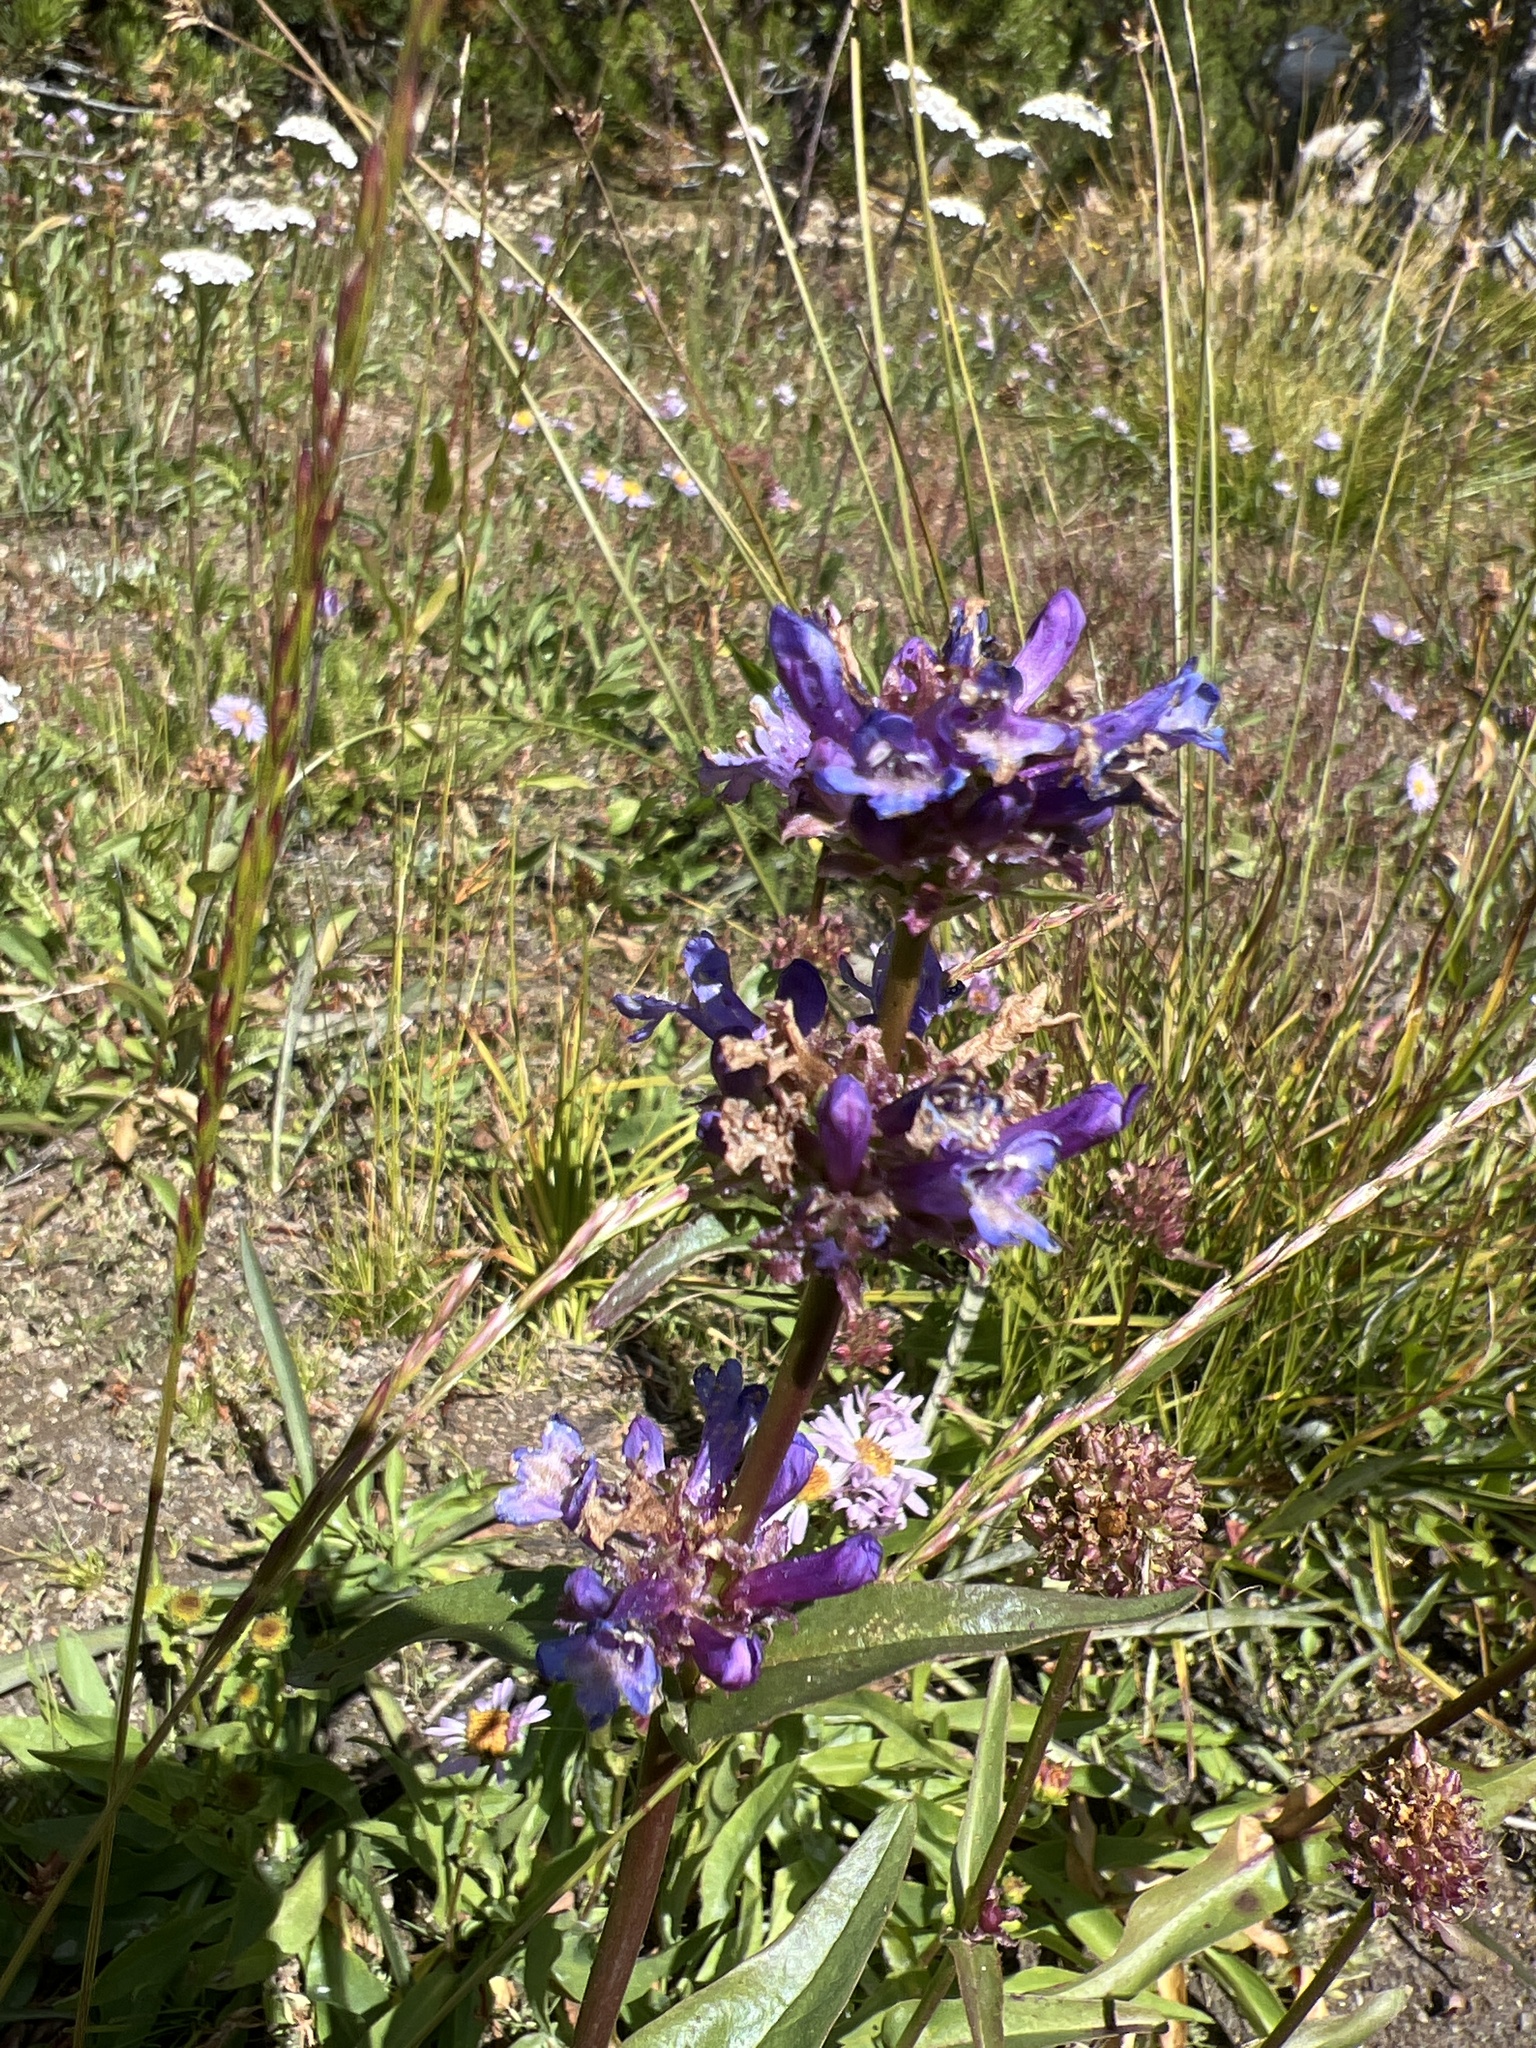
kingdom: Plantae
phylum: Tracheophyta
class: Magnoliopsida
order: Lamiales
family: Plantaginaceae
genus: Penstemon
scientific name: Penstemon rydbergii
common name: Rydberg's beardtongue
